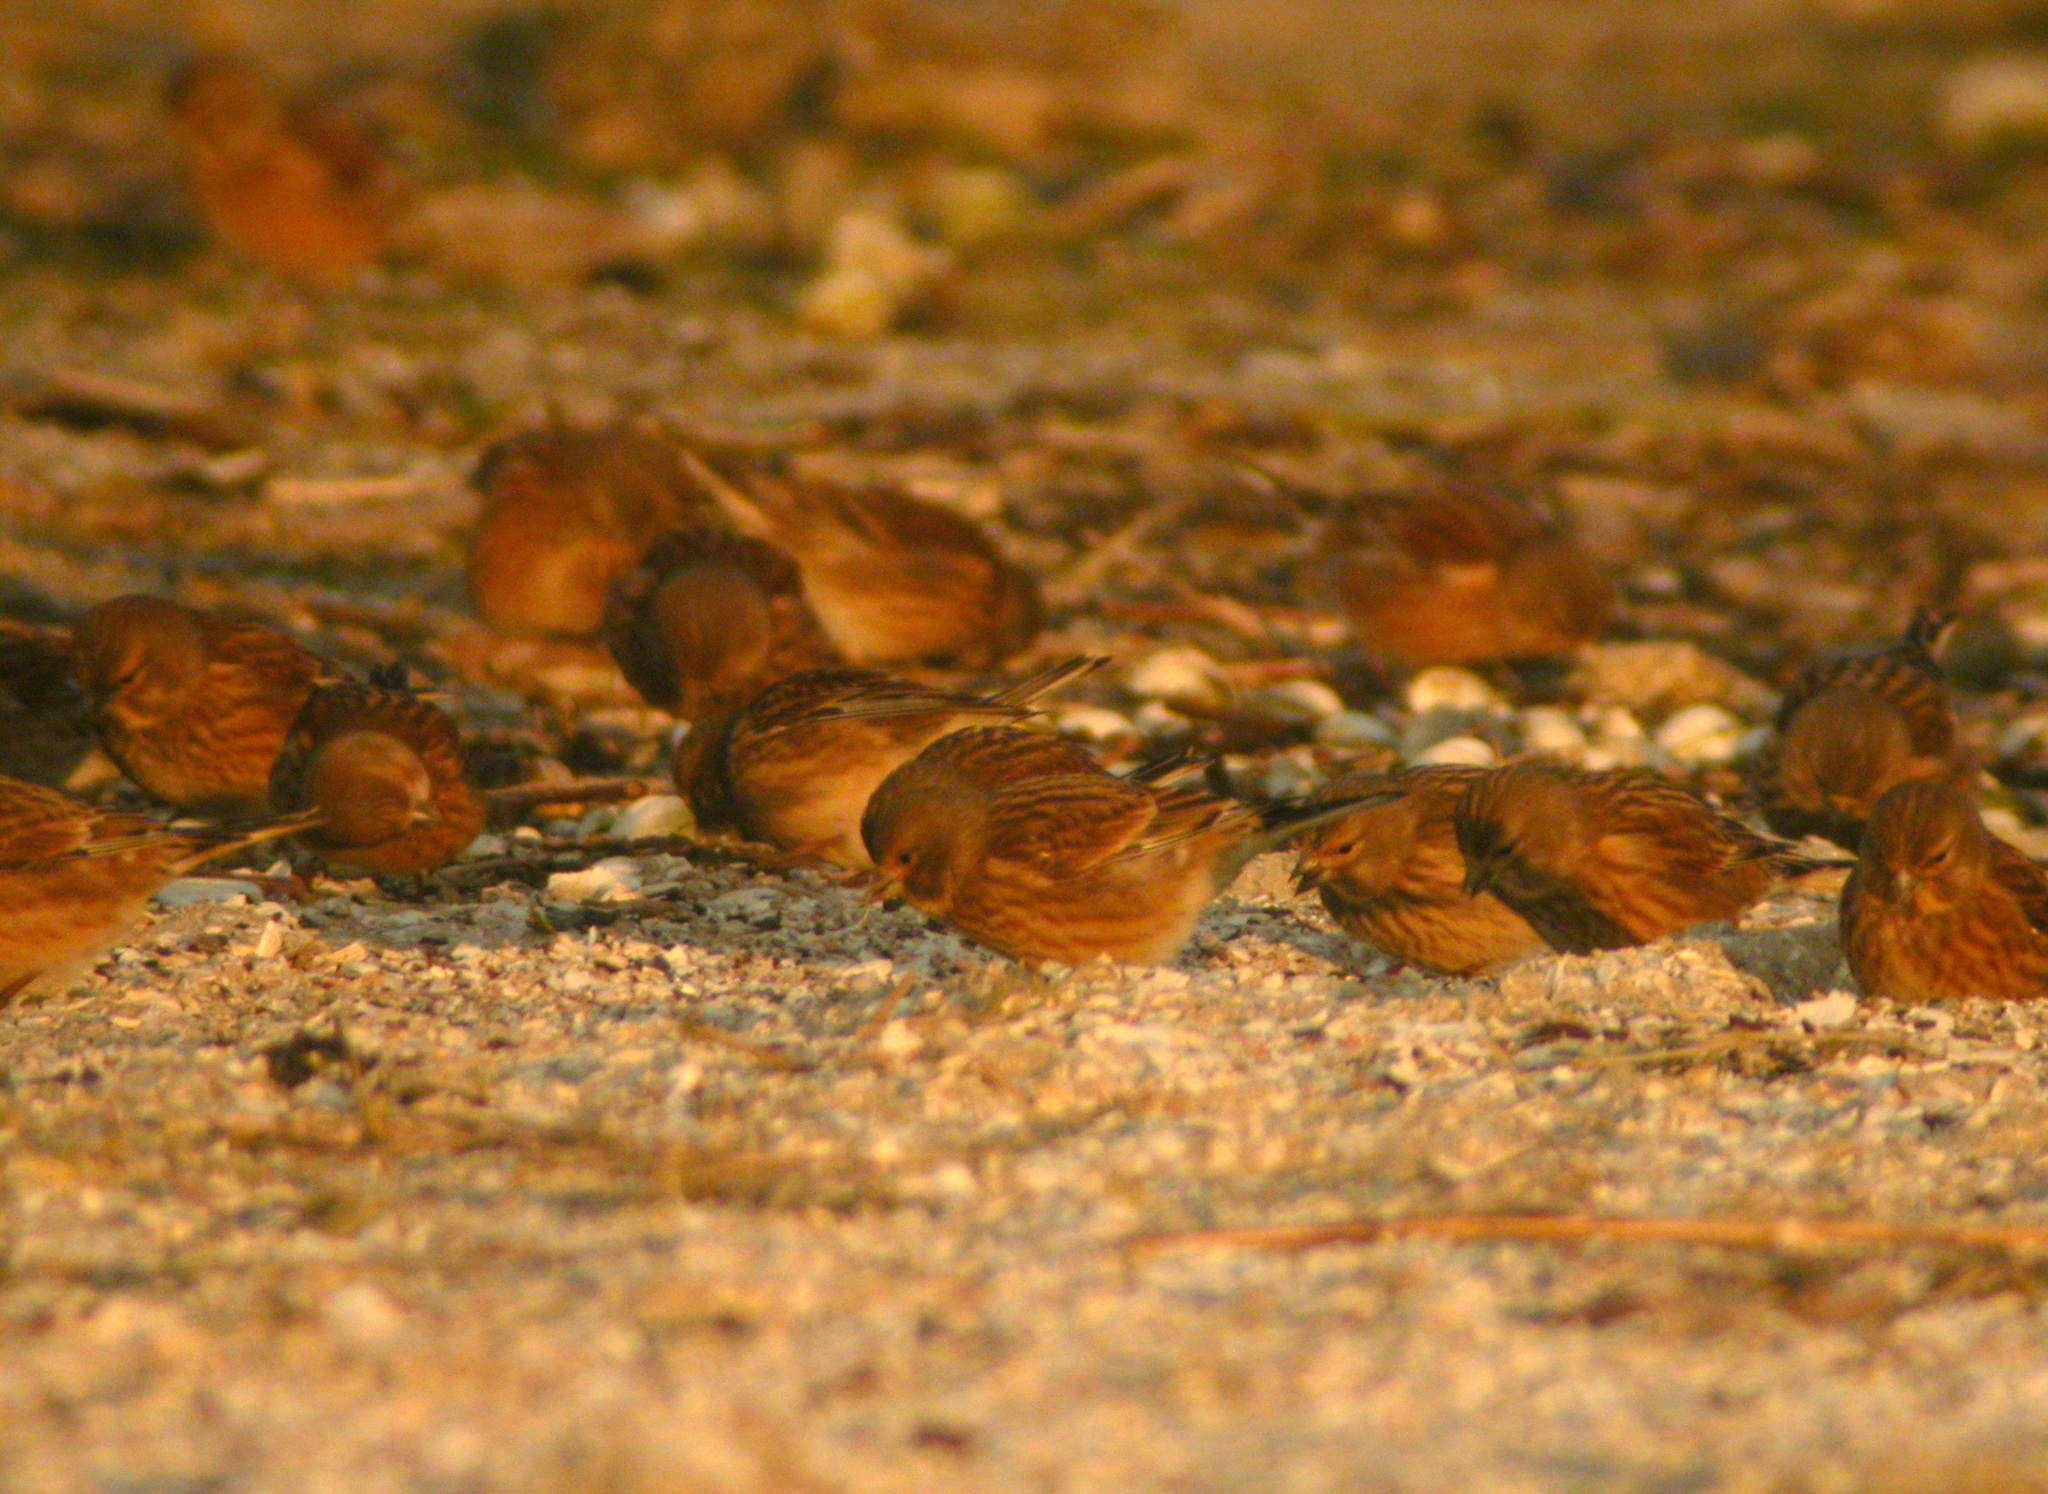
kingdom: Animalia
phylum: Chordata
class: Aves
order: Passeriformes
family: Fringillidae
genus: Linaria
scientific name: Linaria cannabina
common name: Common linnet
